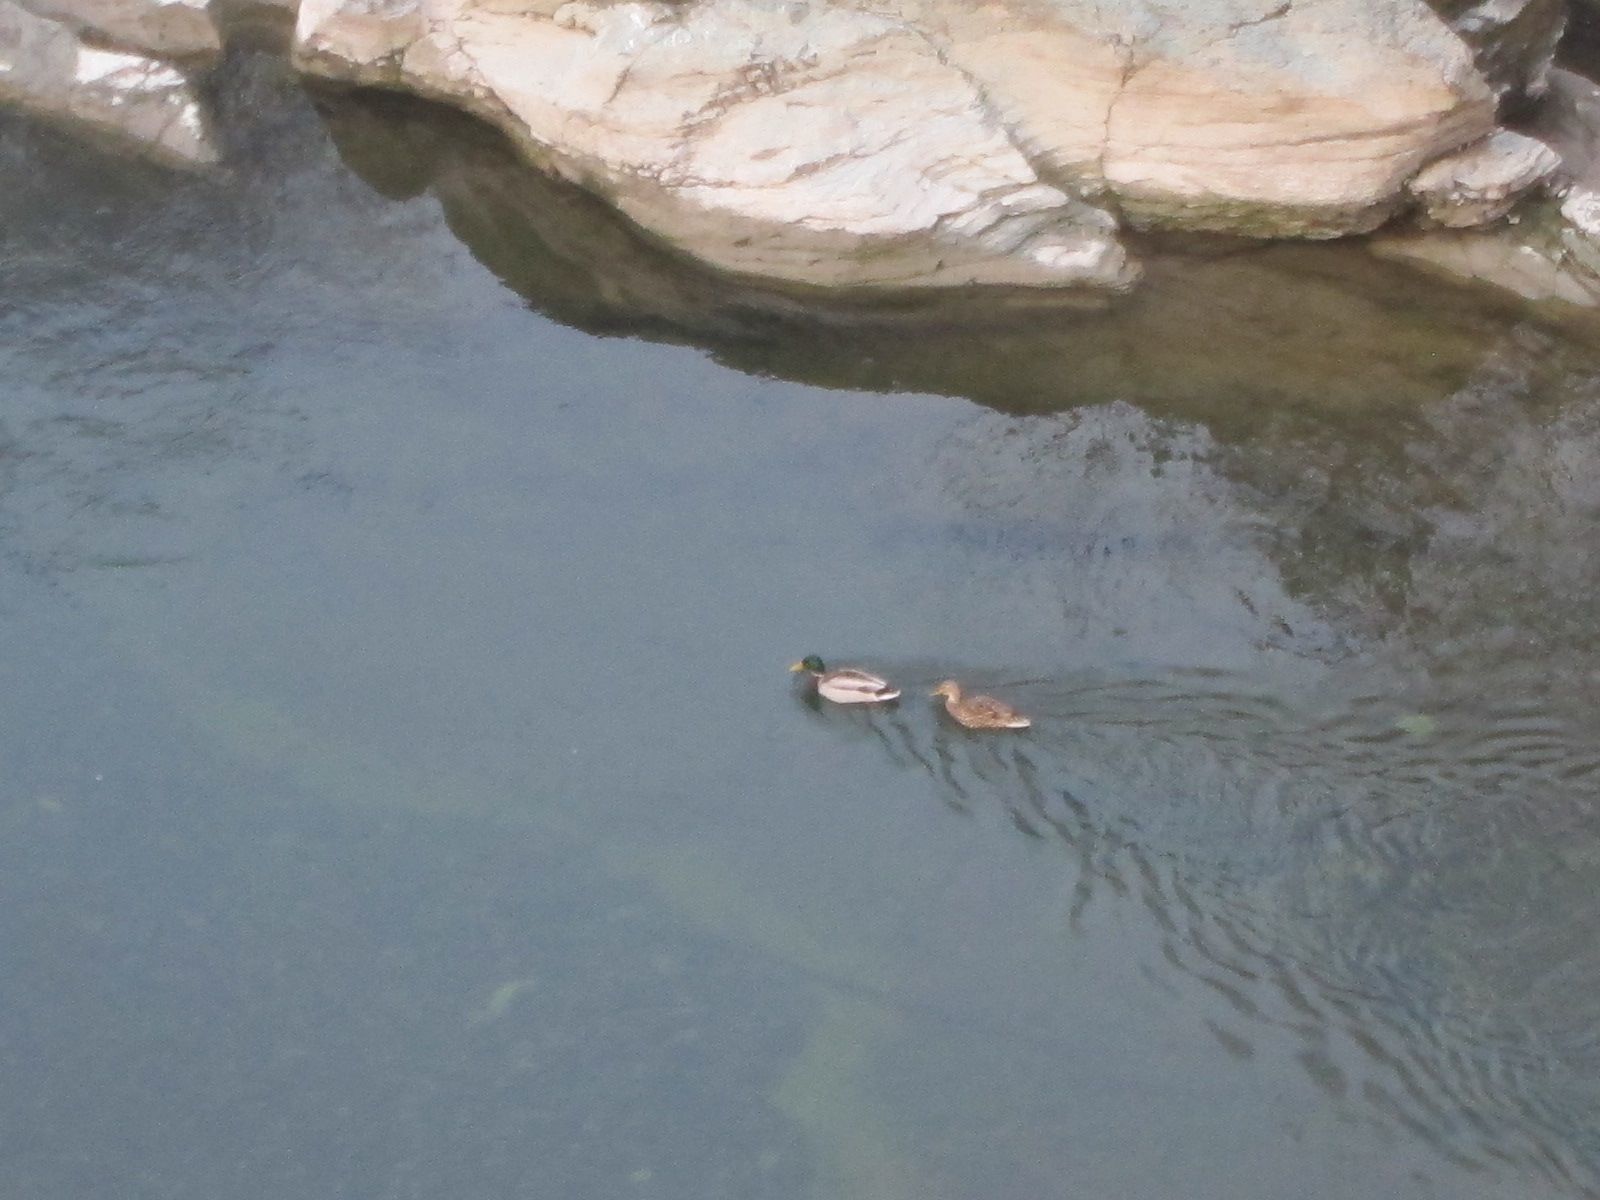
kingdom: Animalia
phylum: Chordata
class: Aves
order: Anseriformes
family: Anatidae
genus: Anas
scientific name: Anas platyrhynchos
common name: Mallard
